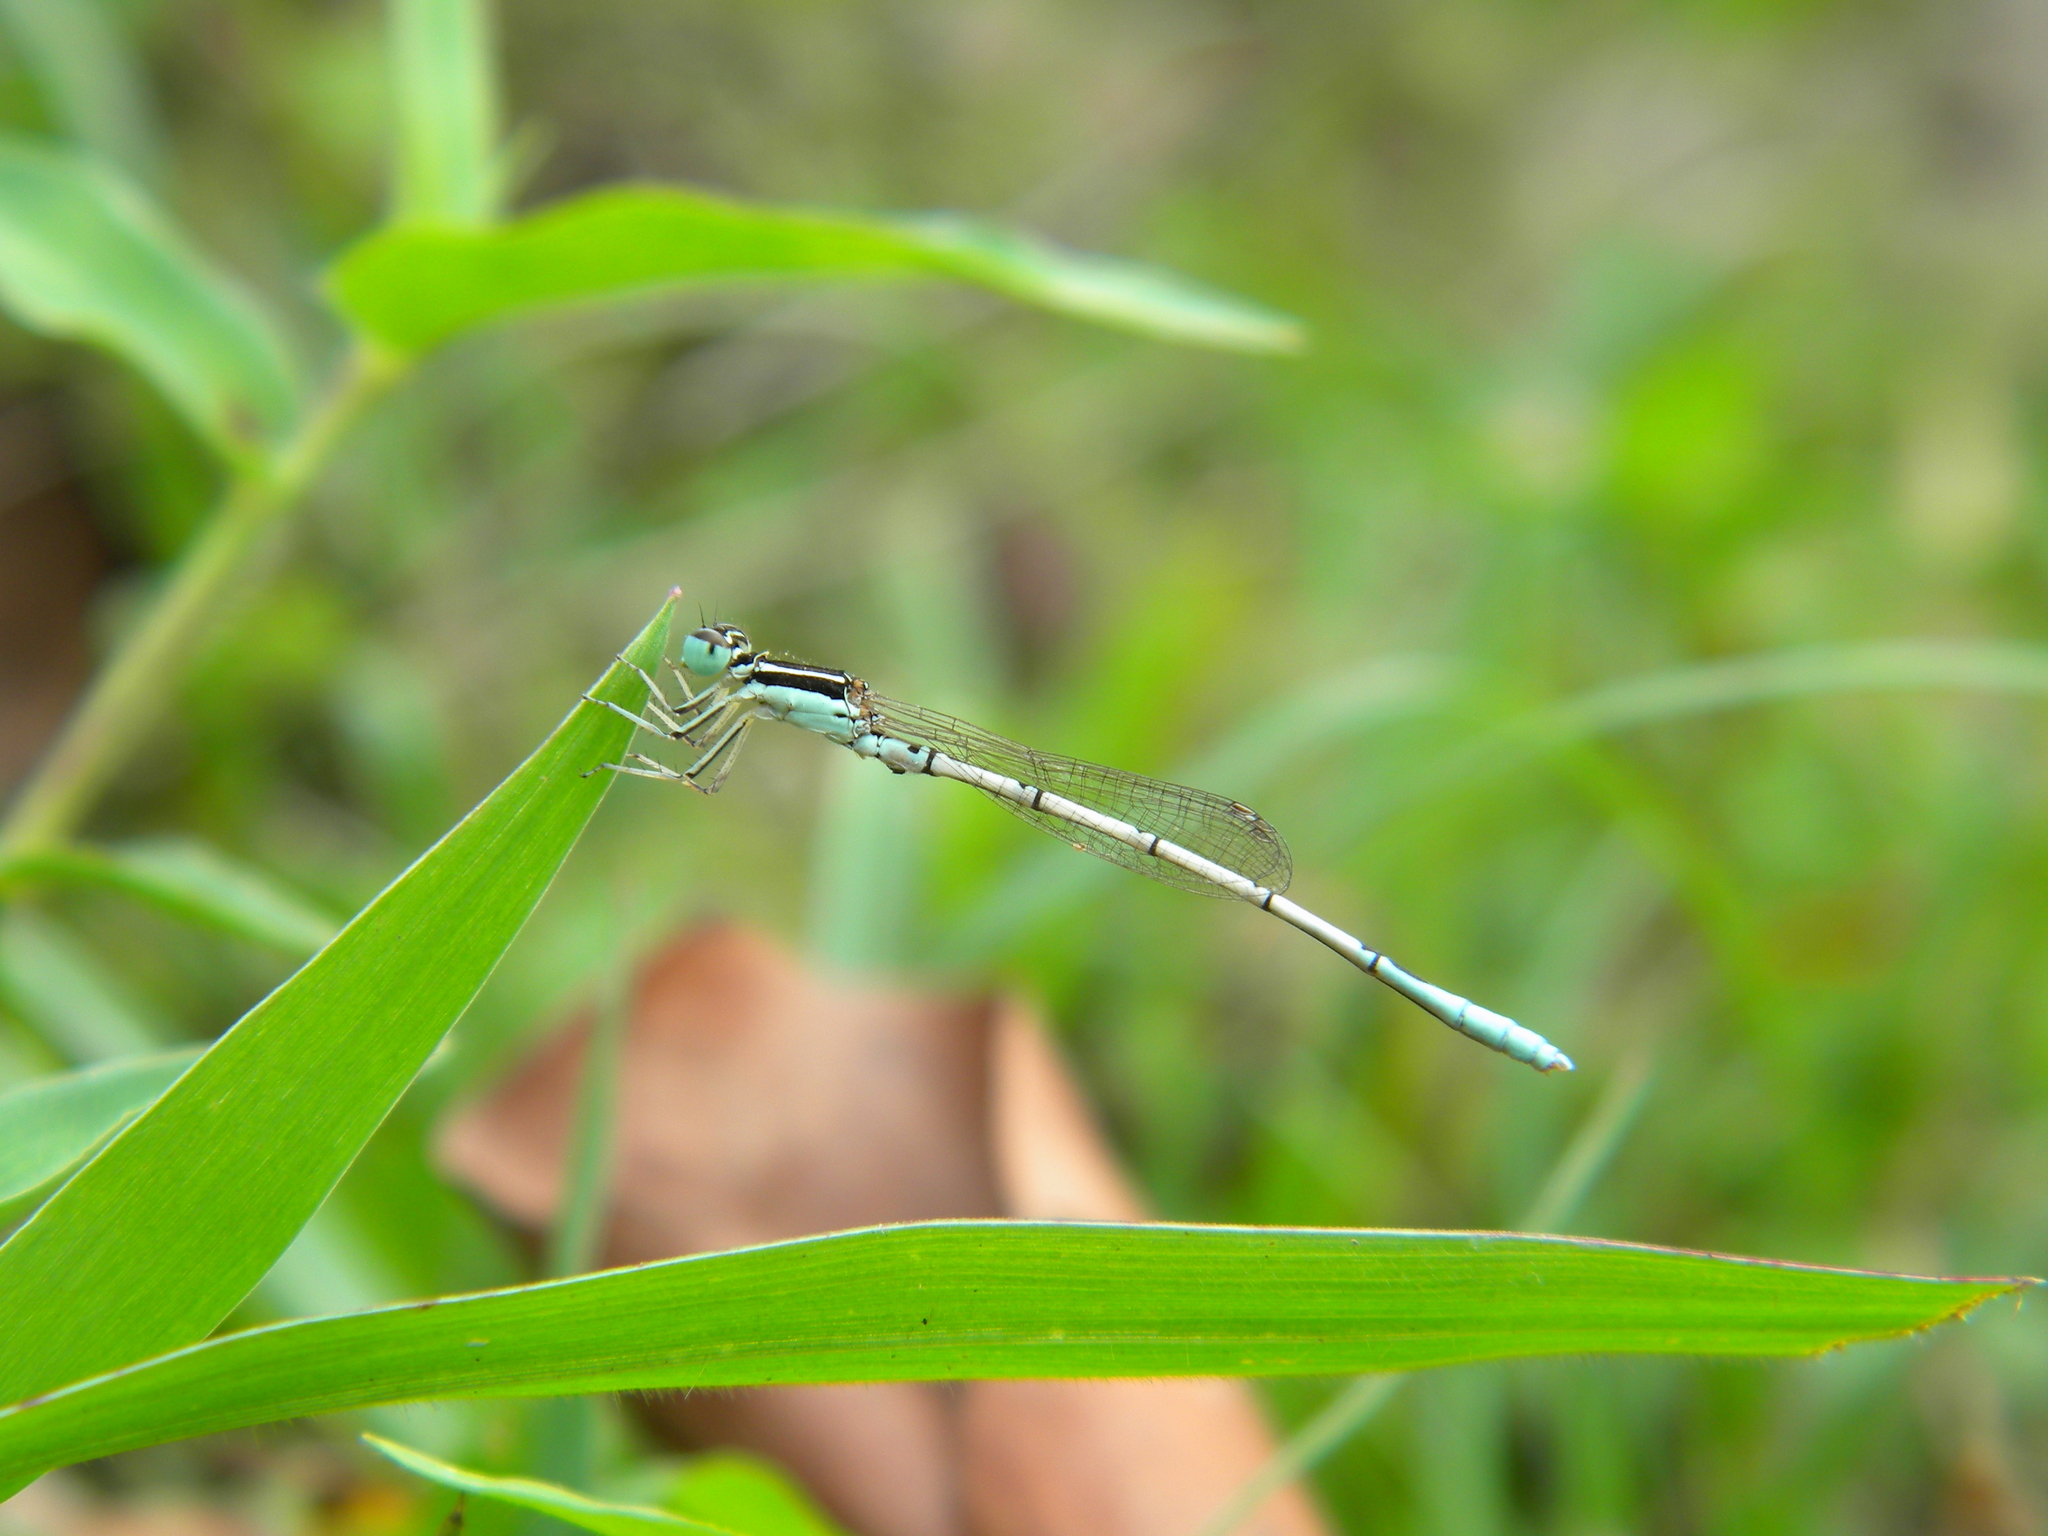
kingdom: Animalia
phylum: Arthropoda
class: Insecta
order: Odonata
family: Coenagrionidae
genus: Agriocnemis
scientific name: Agriocnemis pieris
